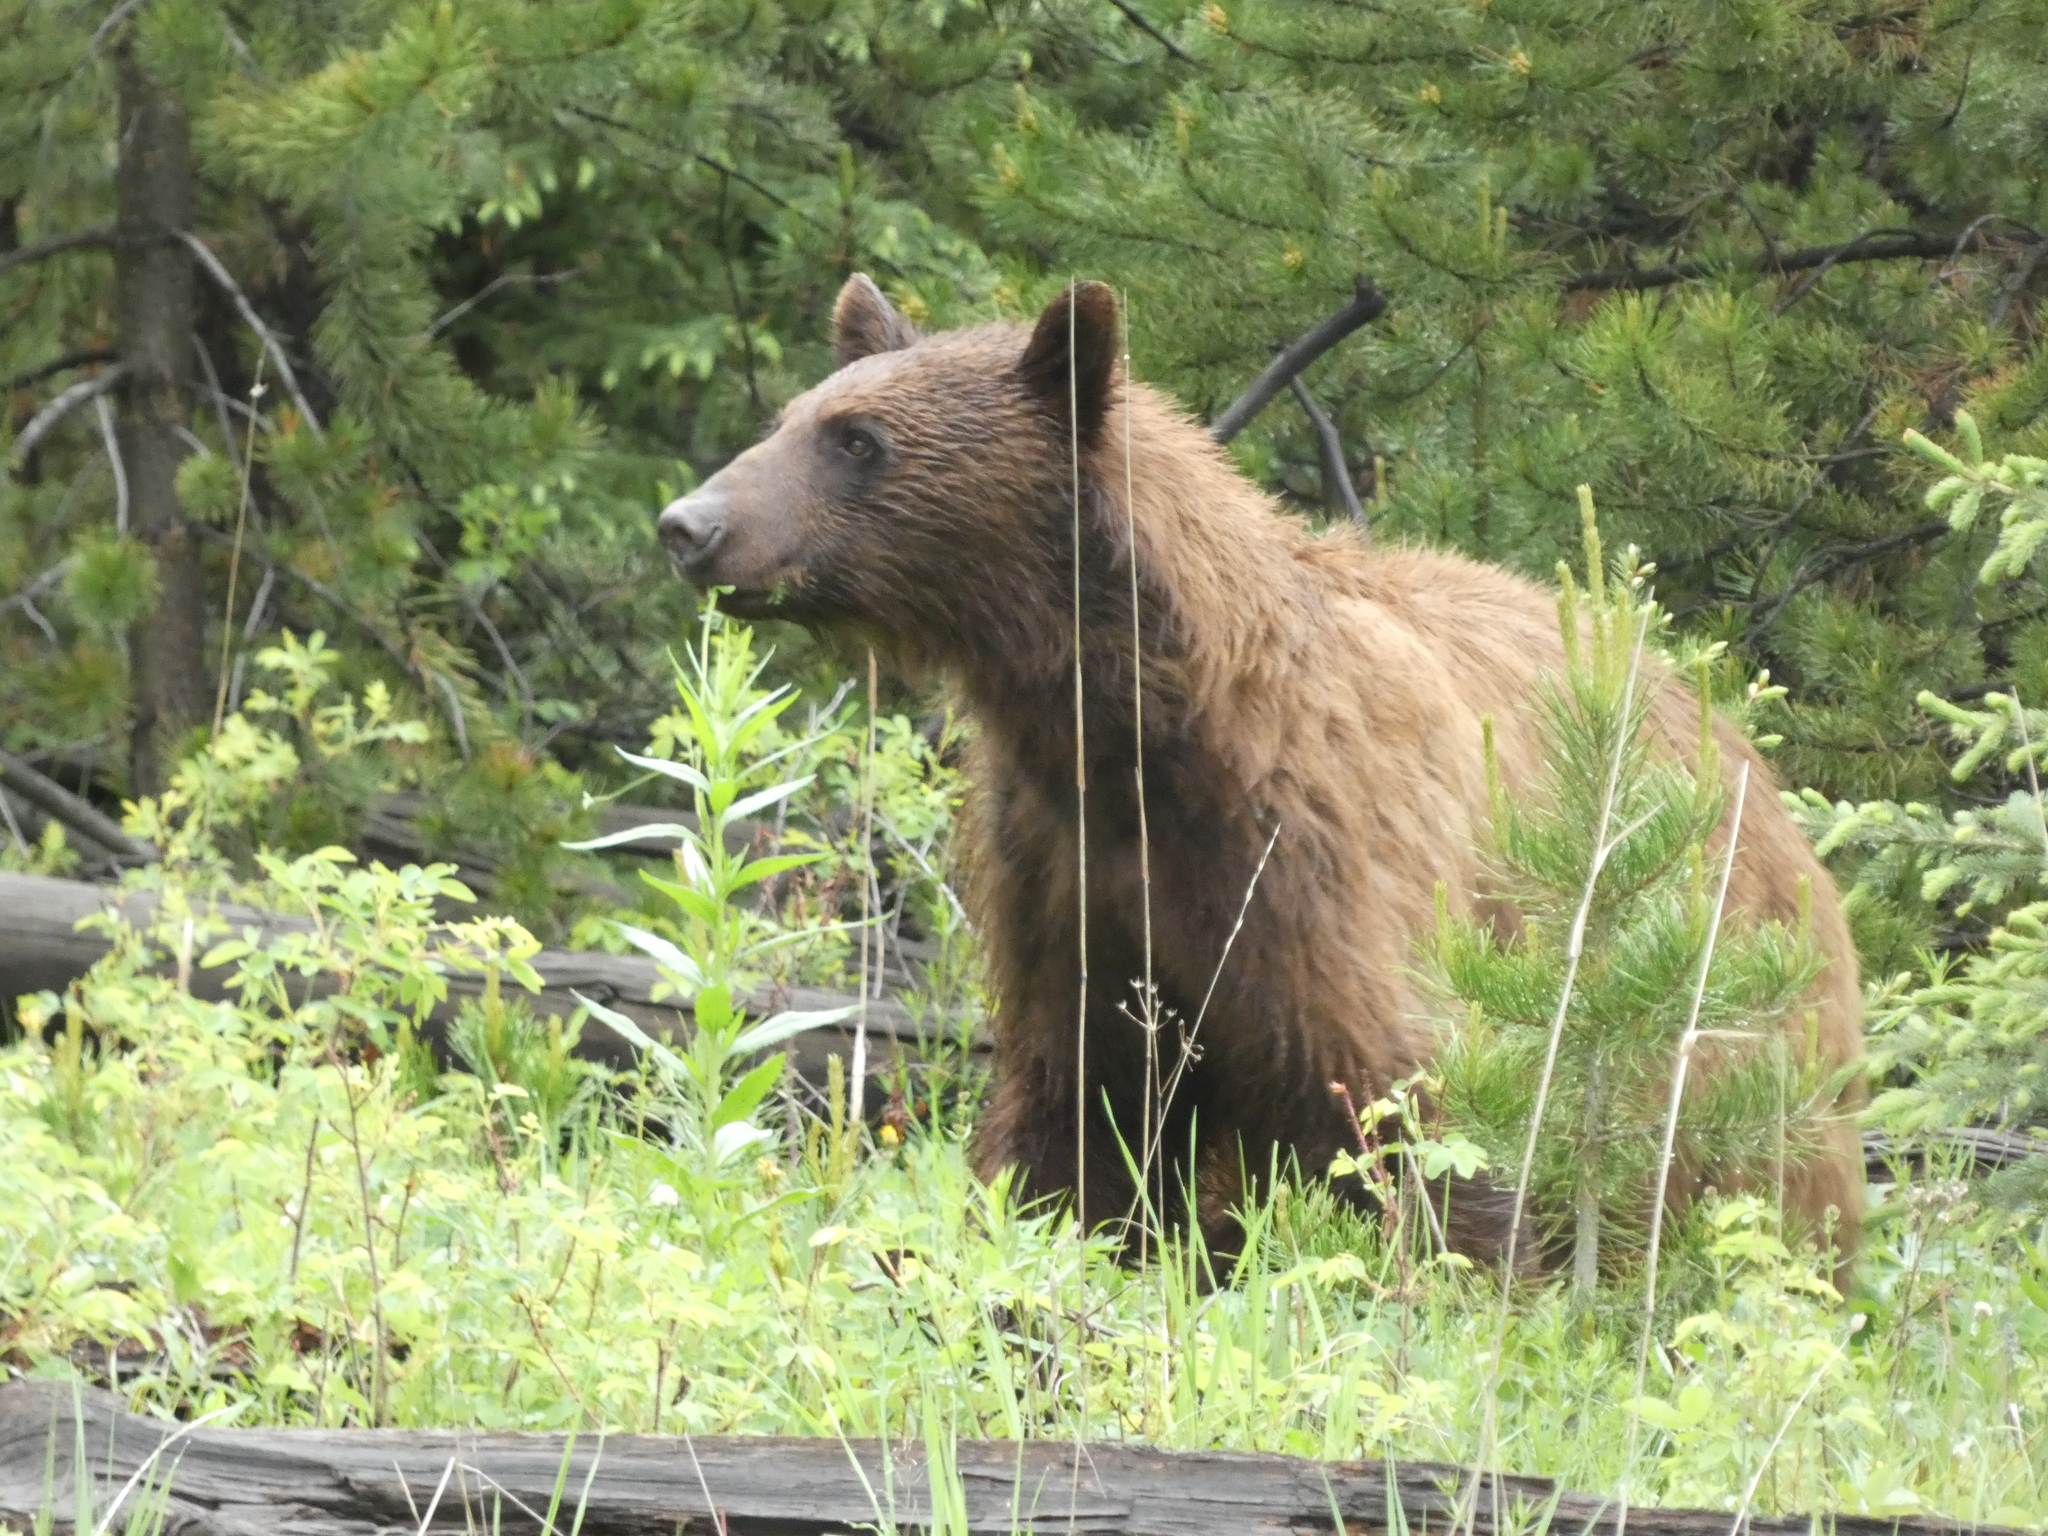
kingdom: Animalia
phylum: Chordata
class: Mammalia
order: Carnivora
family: Ursidae
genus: Ursus
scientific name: Ursus americanus
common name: American black bear
